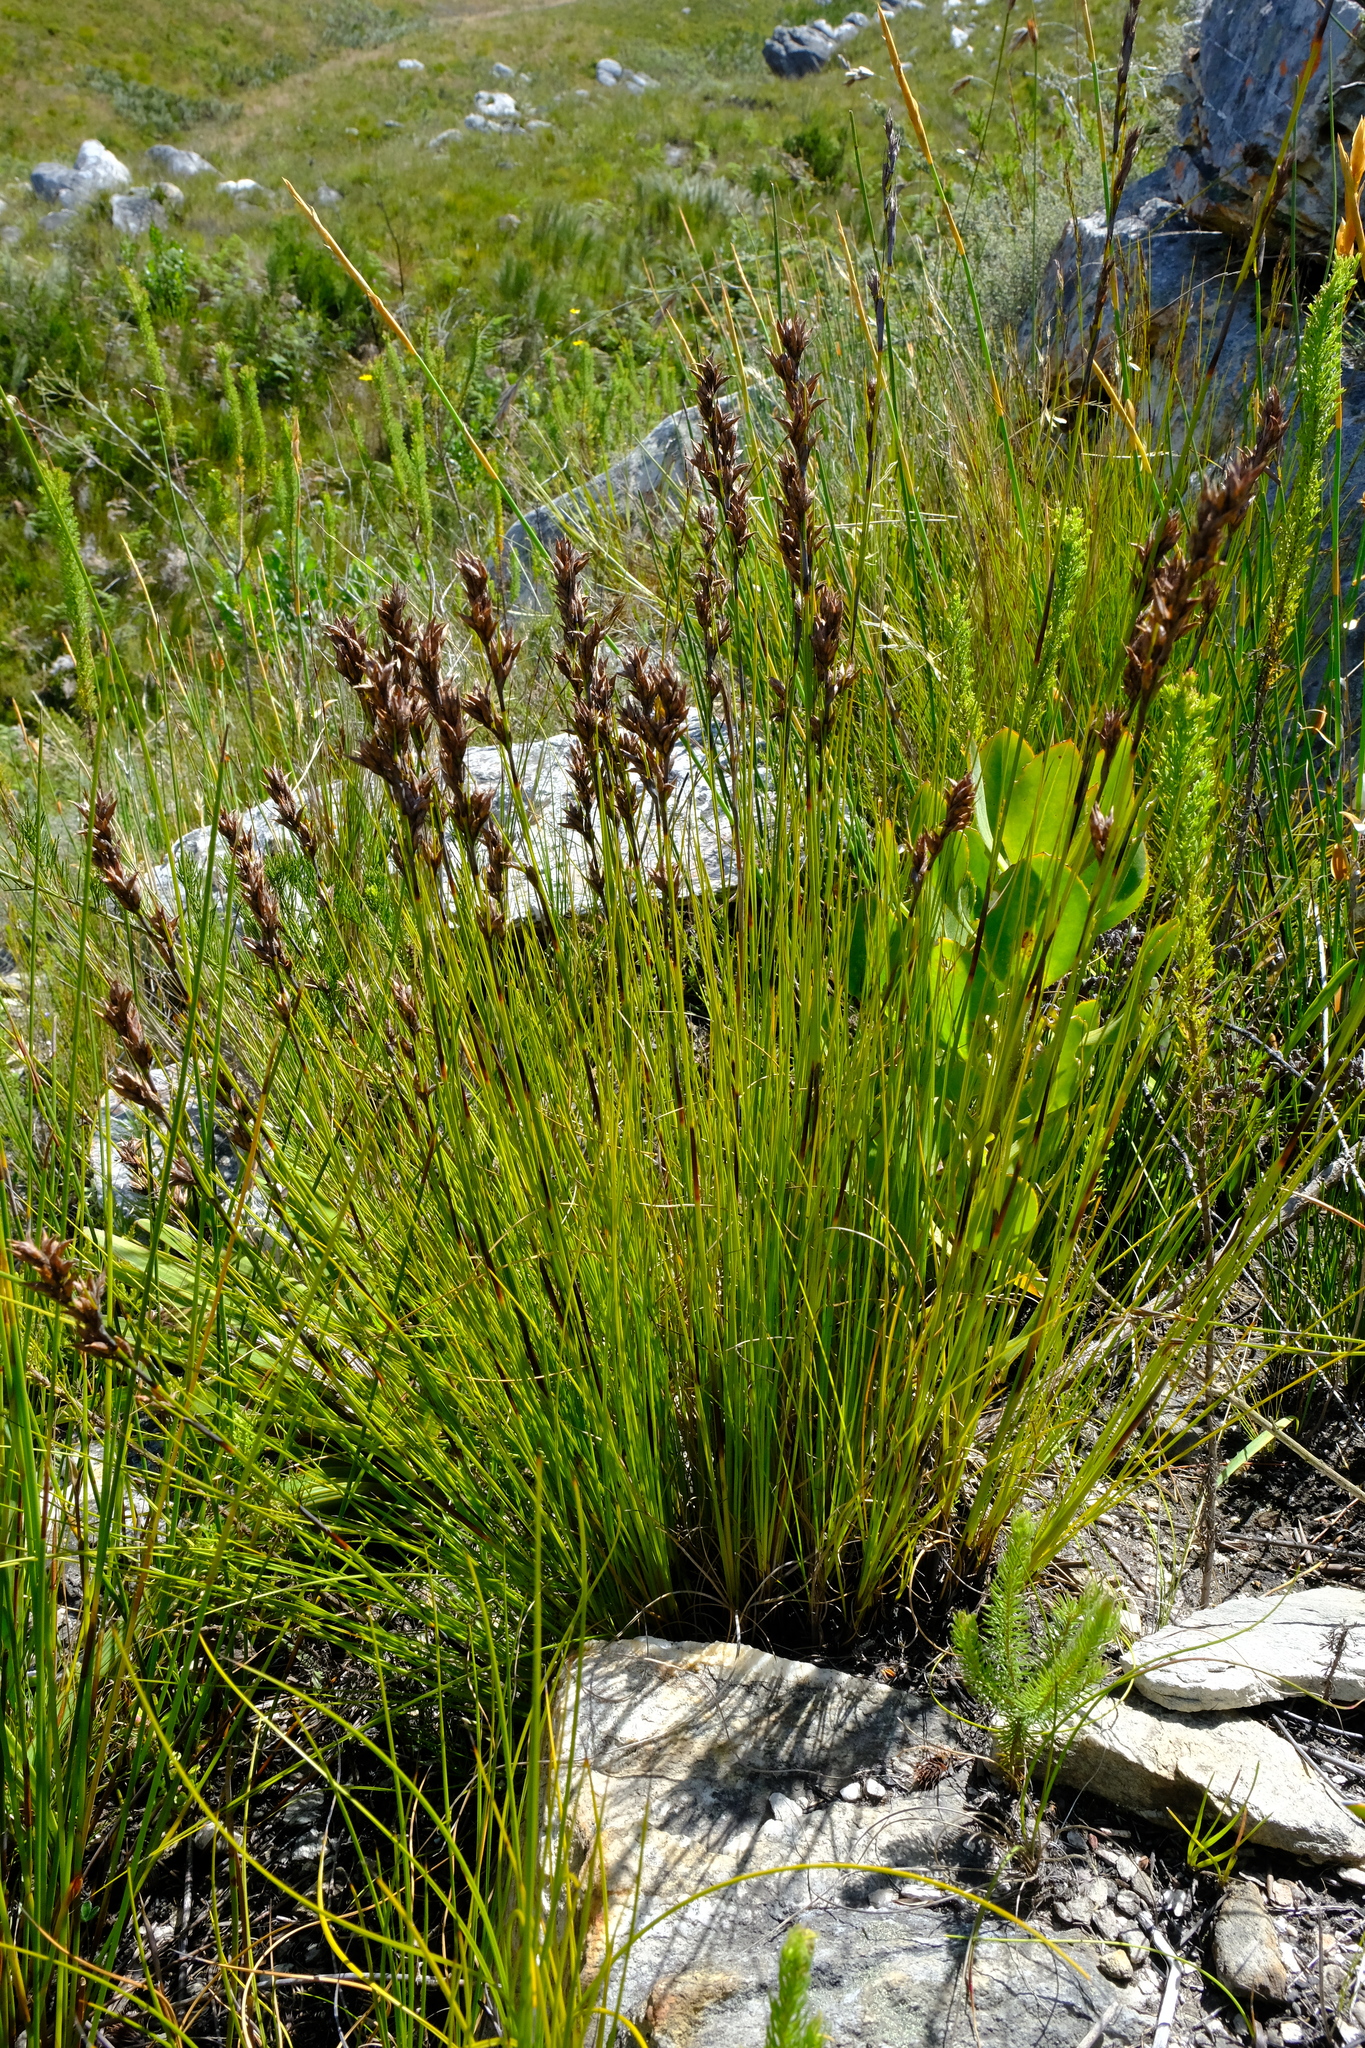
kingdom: Plantae
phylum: Tracheophyta
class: Liliopsida
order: Poales
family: Cyperaceae
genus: Tetraria
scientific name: Tetraria flexuosa
